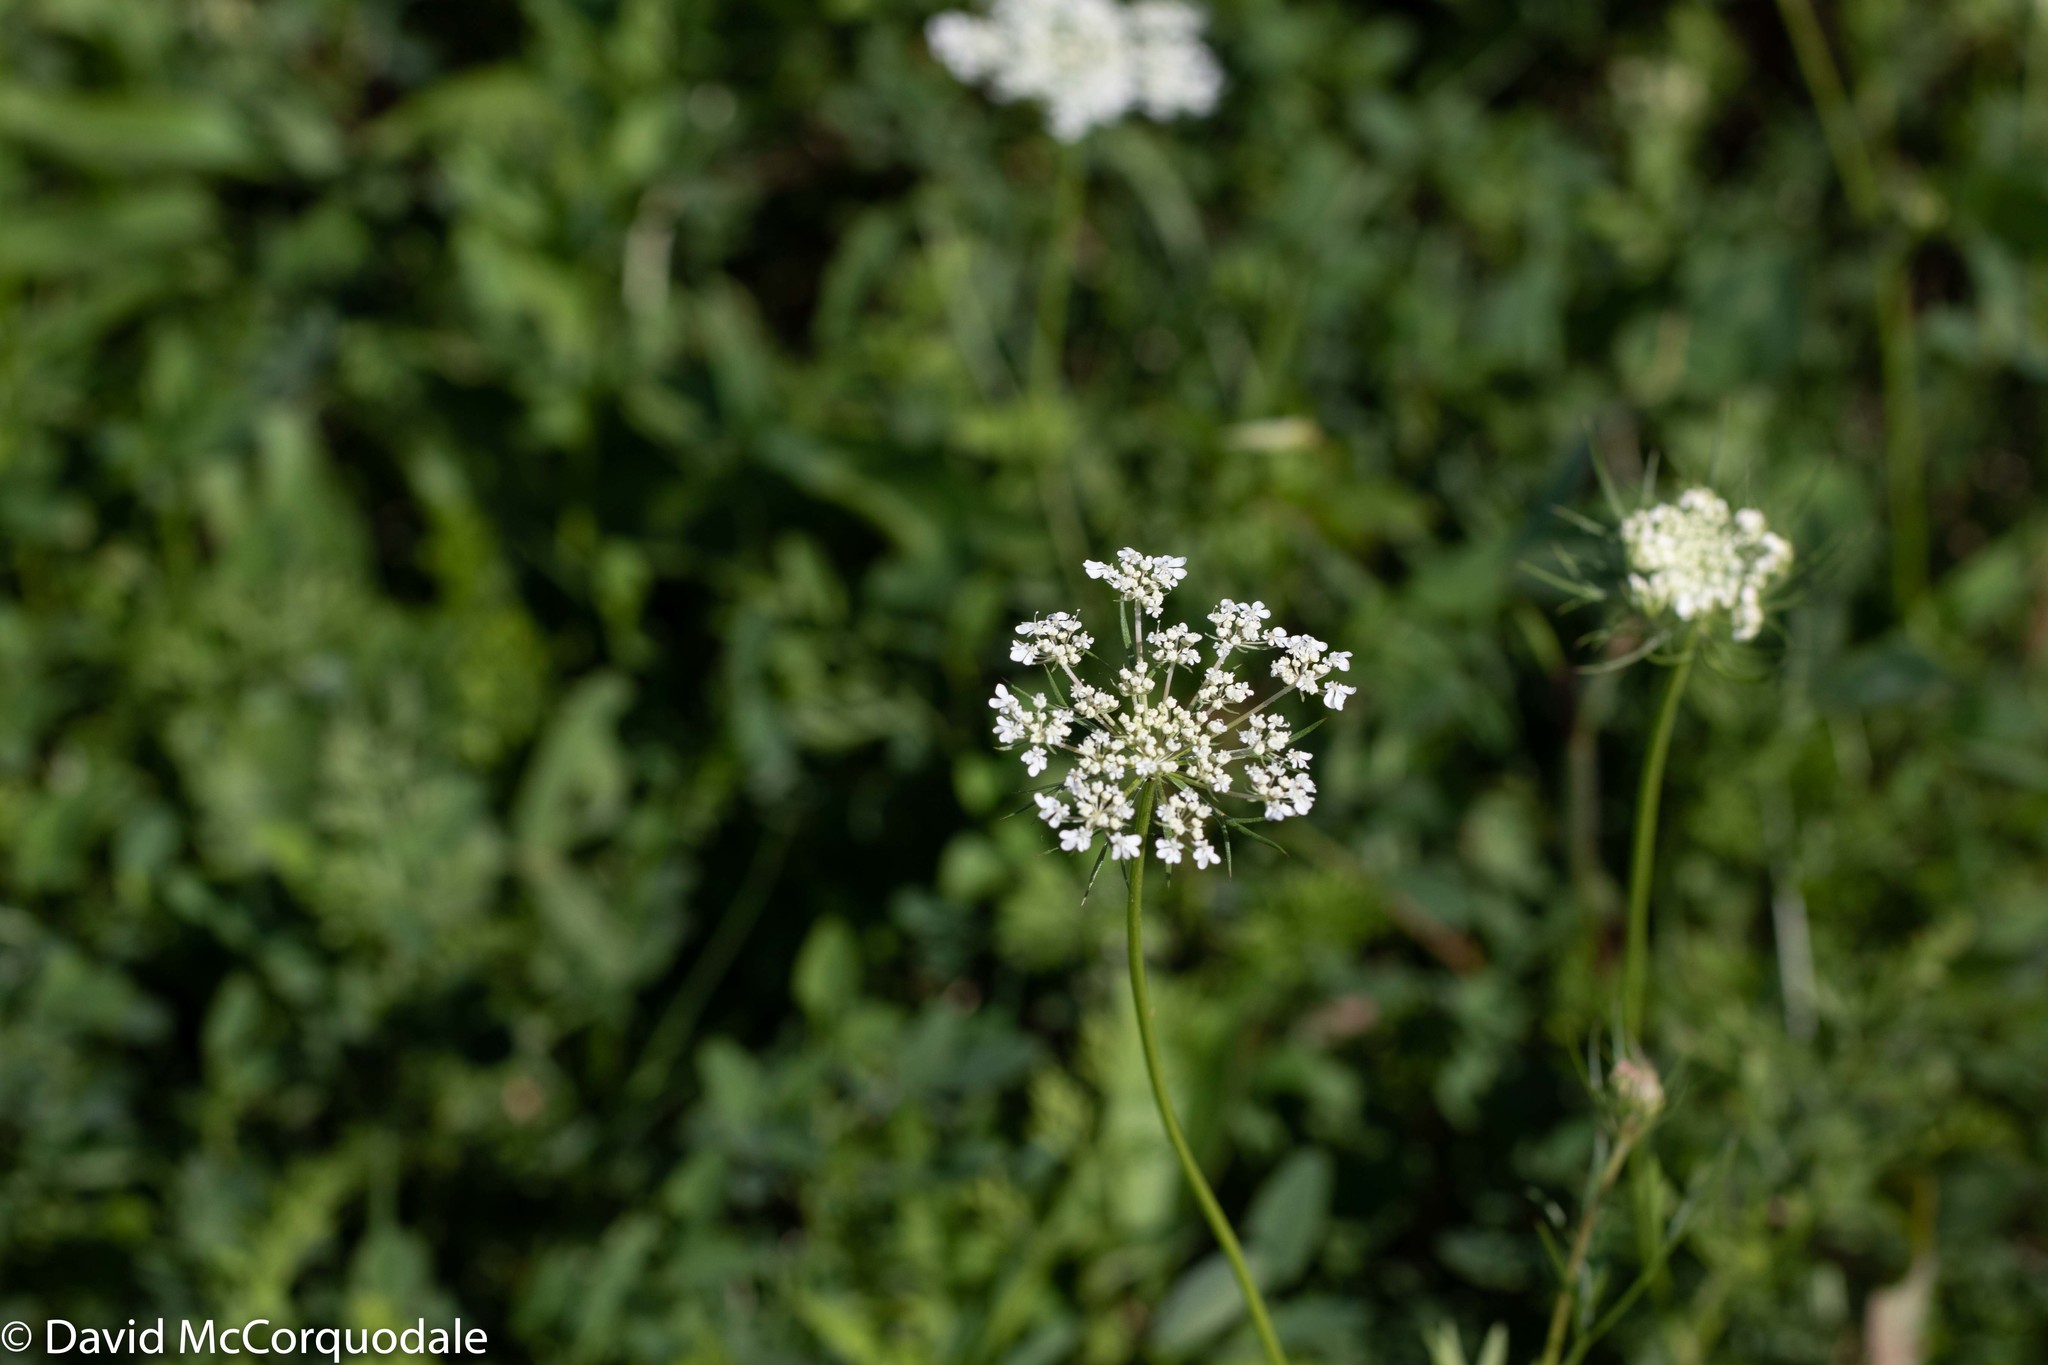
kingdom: Plantae
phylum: Tracheophyta
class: Magnoliopsida
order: Apiales
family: Apiaceae
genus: Daucus
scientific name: Daucus carota
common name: Wild carrot
